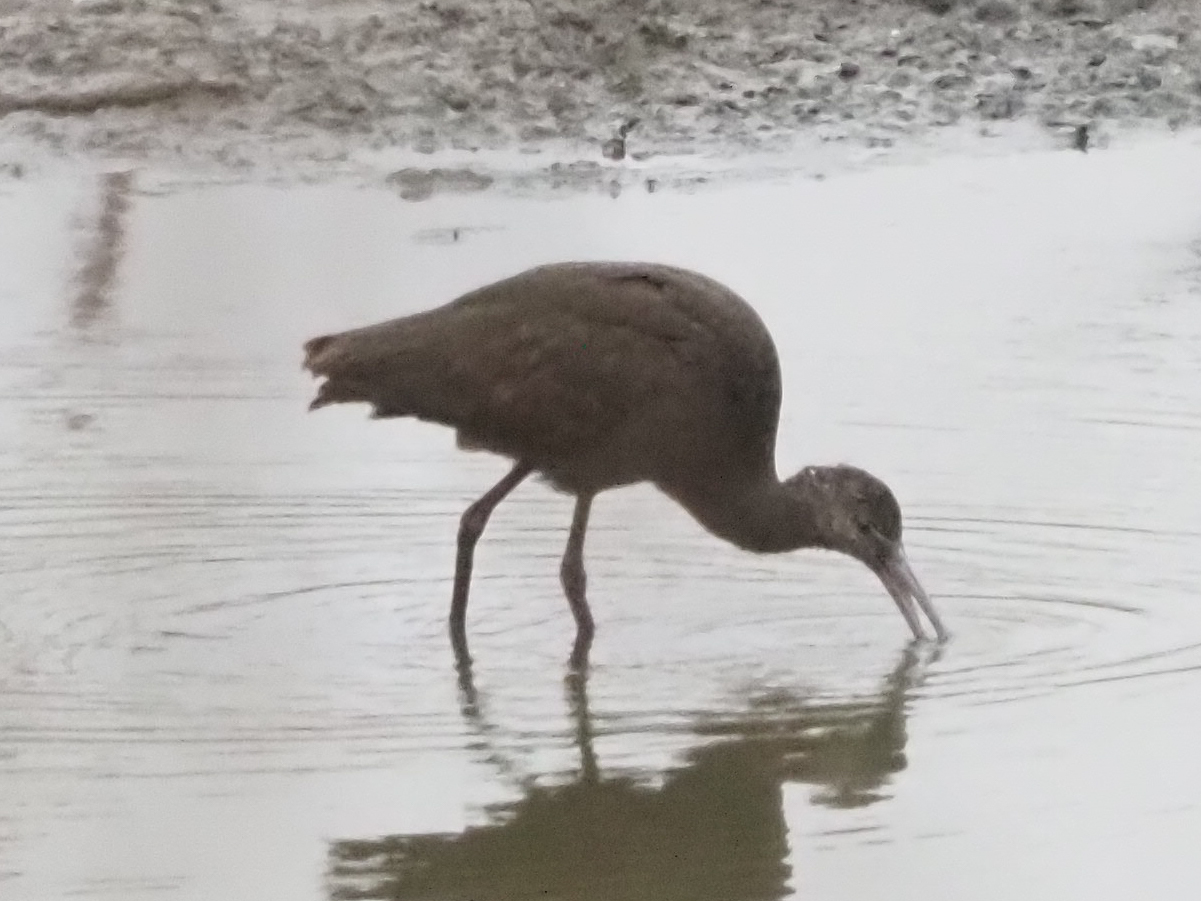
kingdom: Animalia
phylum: Chordata
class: Aves
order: Pelecaniformes
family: Threskiornithidae
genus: Plegadis
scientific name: Plegadis chihi
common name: White-faced ibis
